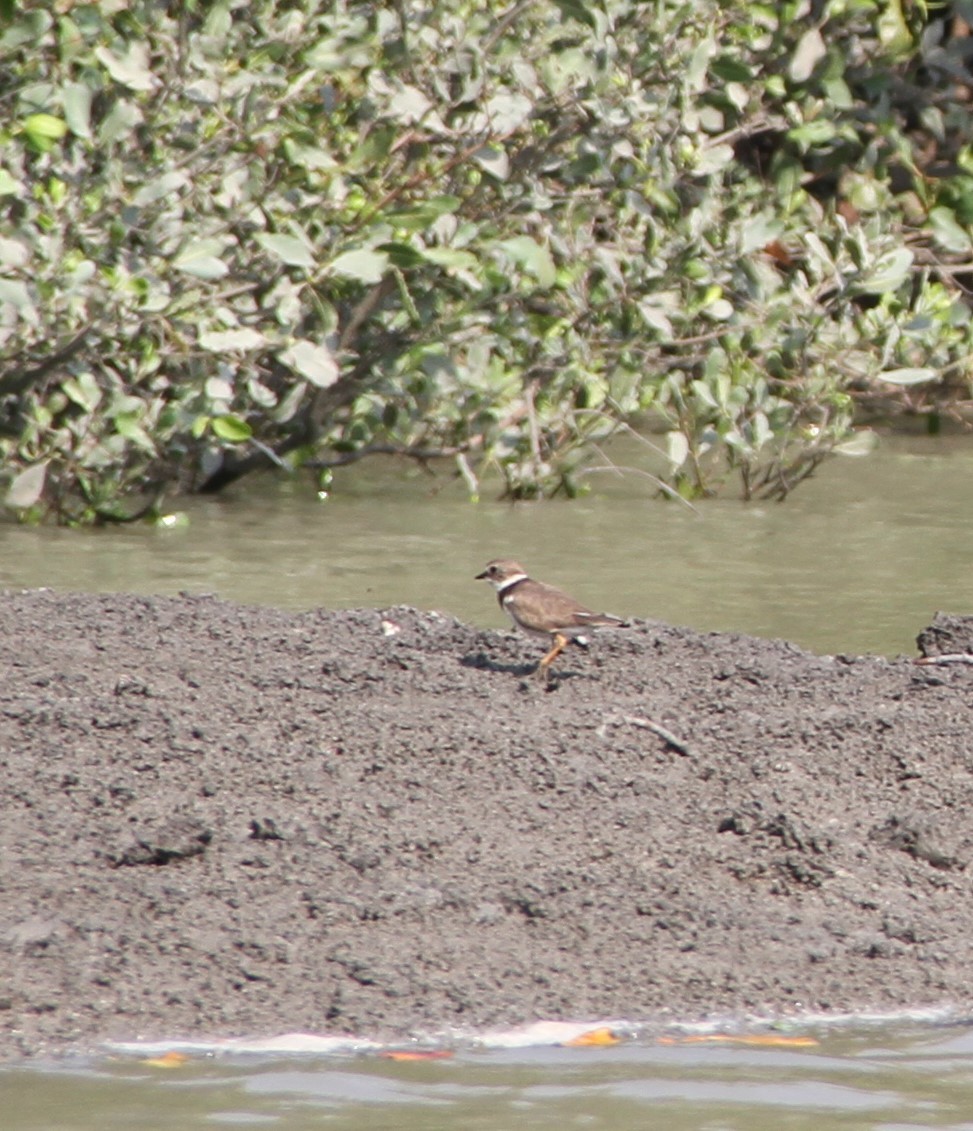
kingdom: Animalia
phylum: Chordata
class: Aves
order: Charadriiformes
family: Charadriidae
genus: Charadrius
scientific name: Charadrius hiaticula
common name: Common ringed plover
